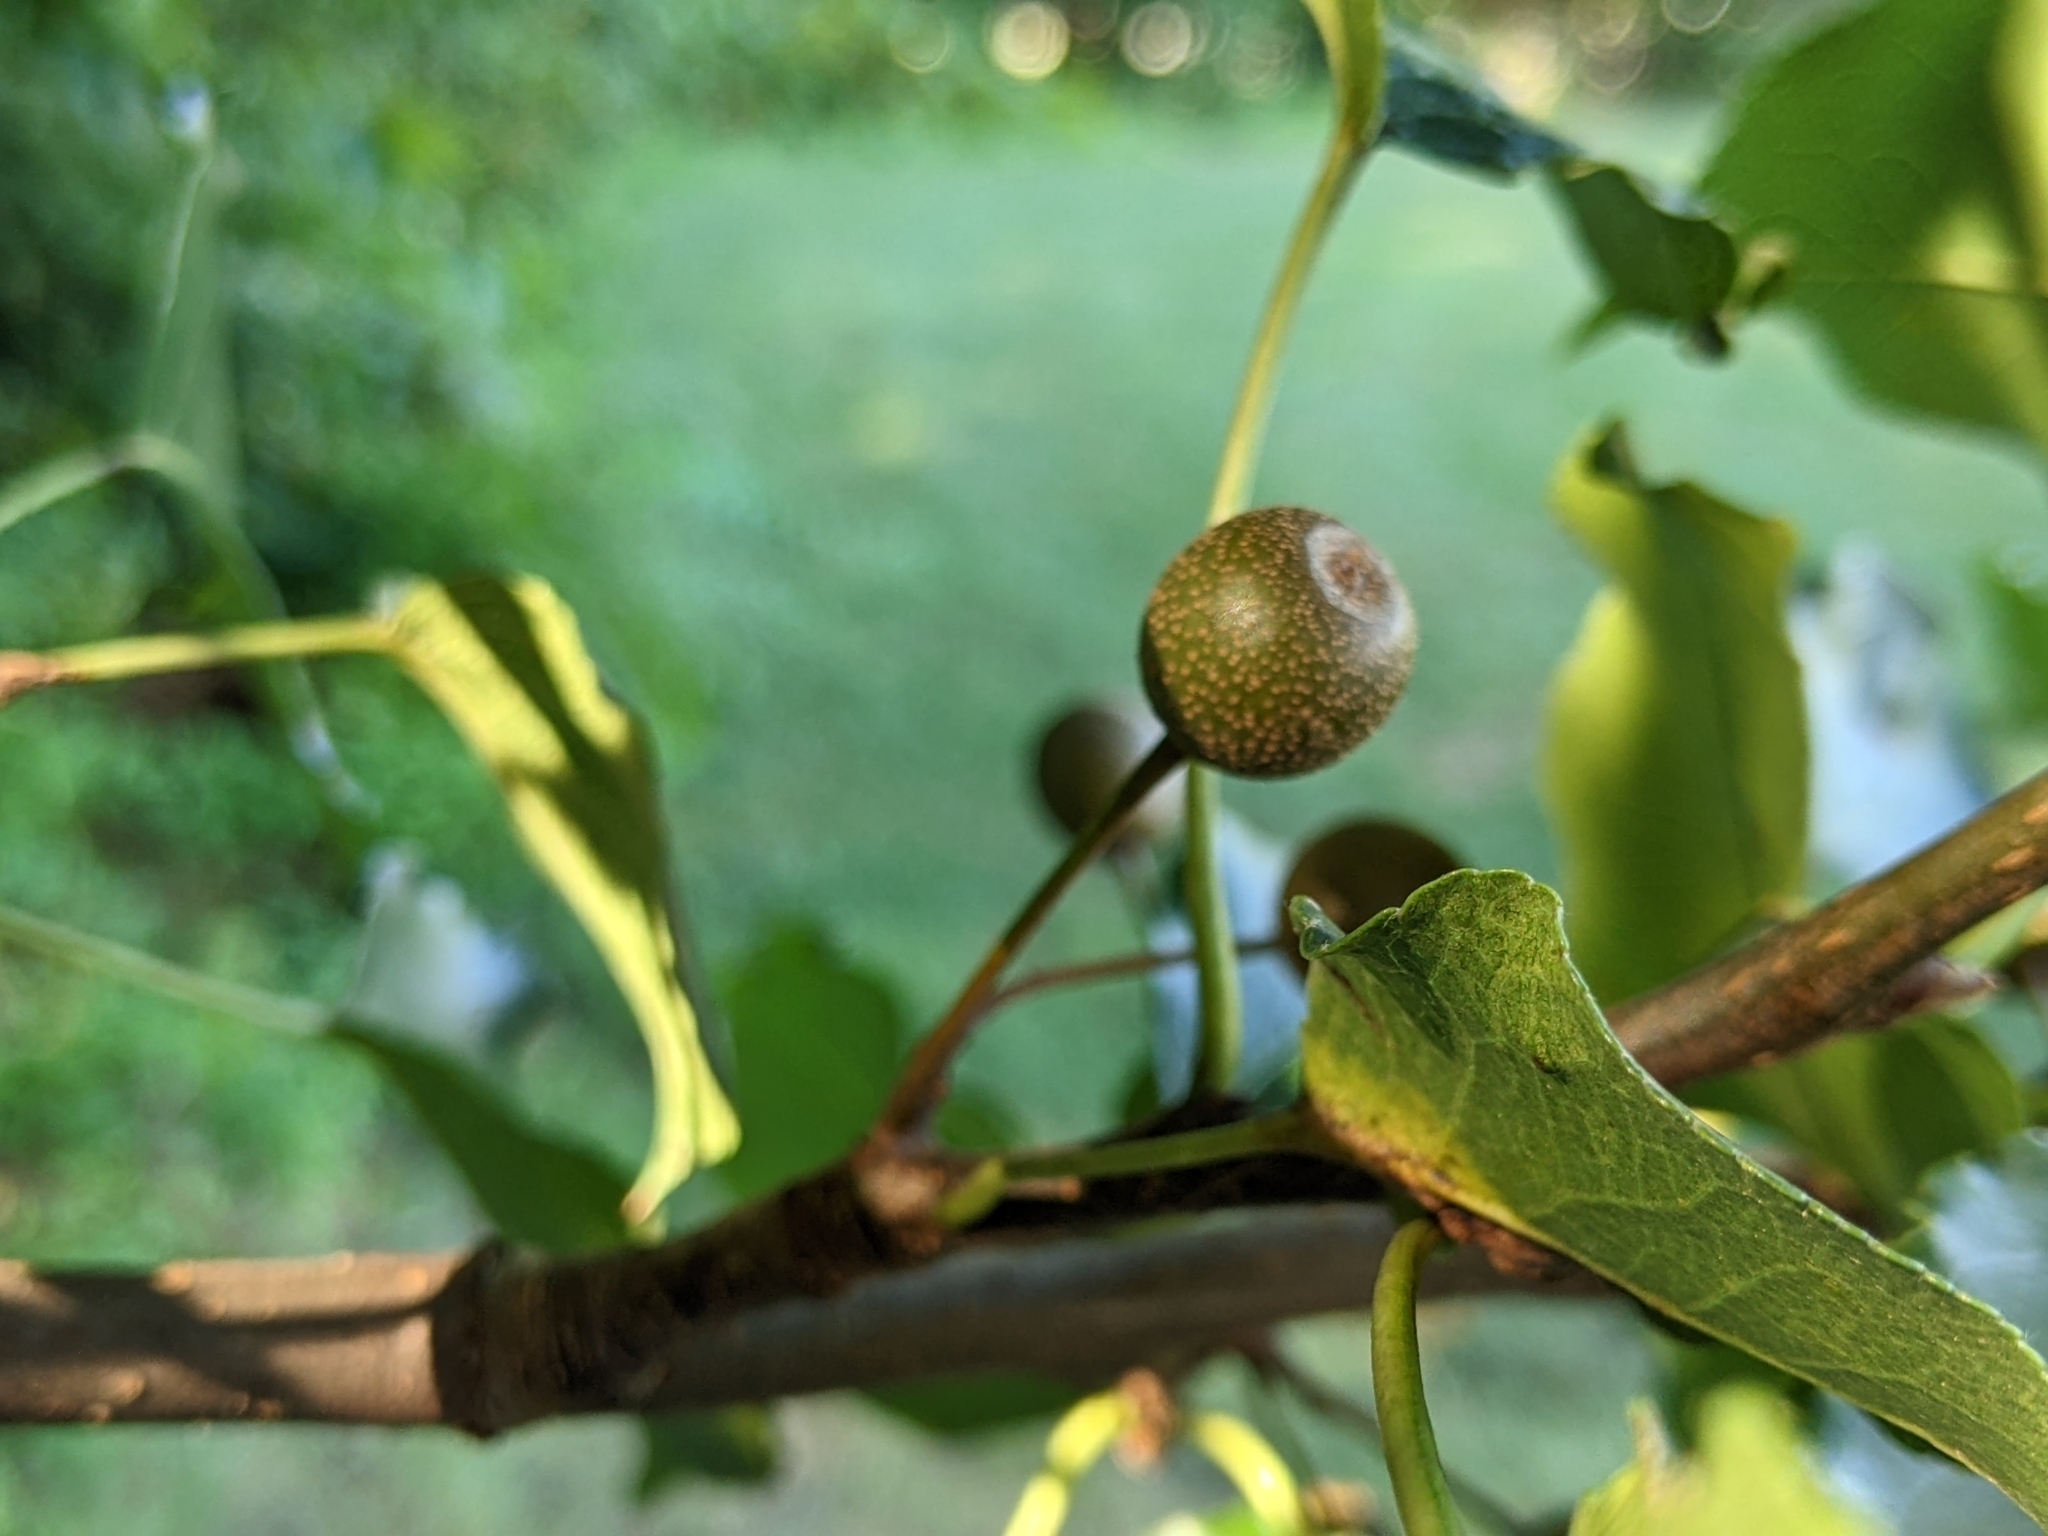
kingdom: Plantae
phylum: Tracheophyta
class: Magnoliopsida
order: Rosales
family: Rosaceae
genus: Pyrus
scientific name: Pyrus calleryana
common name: Callery pear
